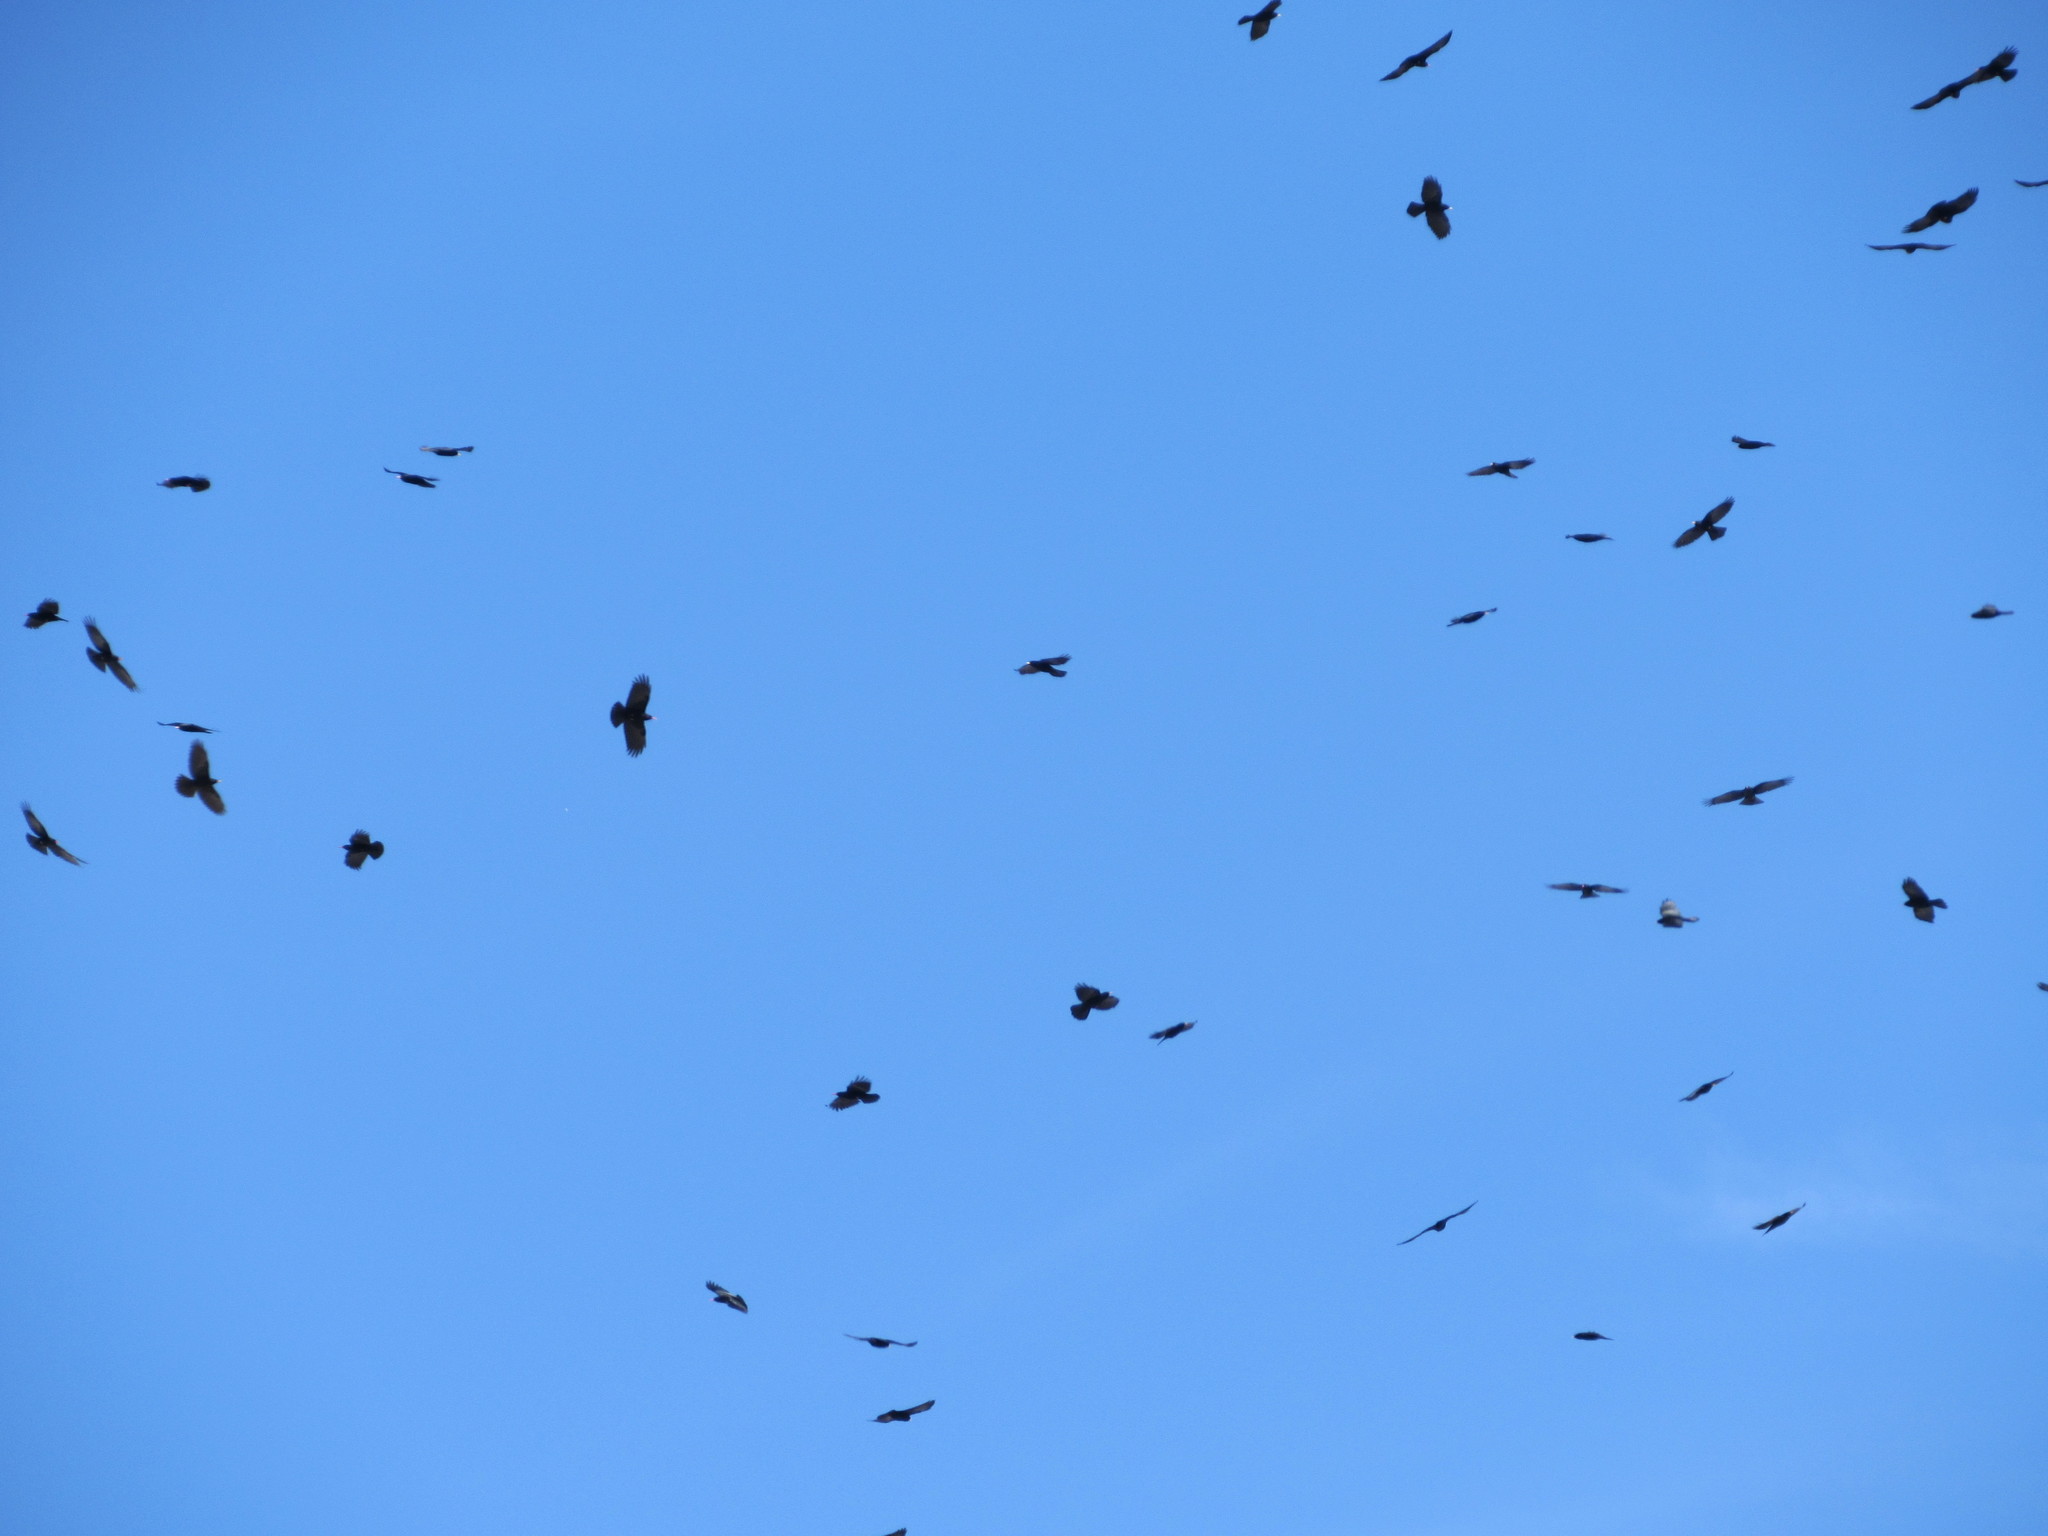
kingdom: Animalia
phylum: Chordata
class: Aves
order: Passeriformes
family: Corvidae
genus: Pyrrhocorax
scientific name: Pyrrhocorax graculus
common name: Alpine chough
